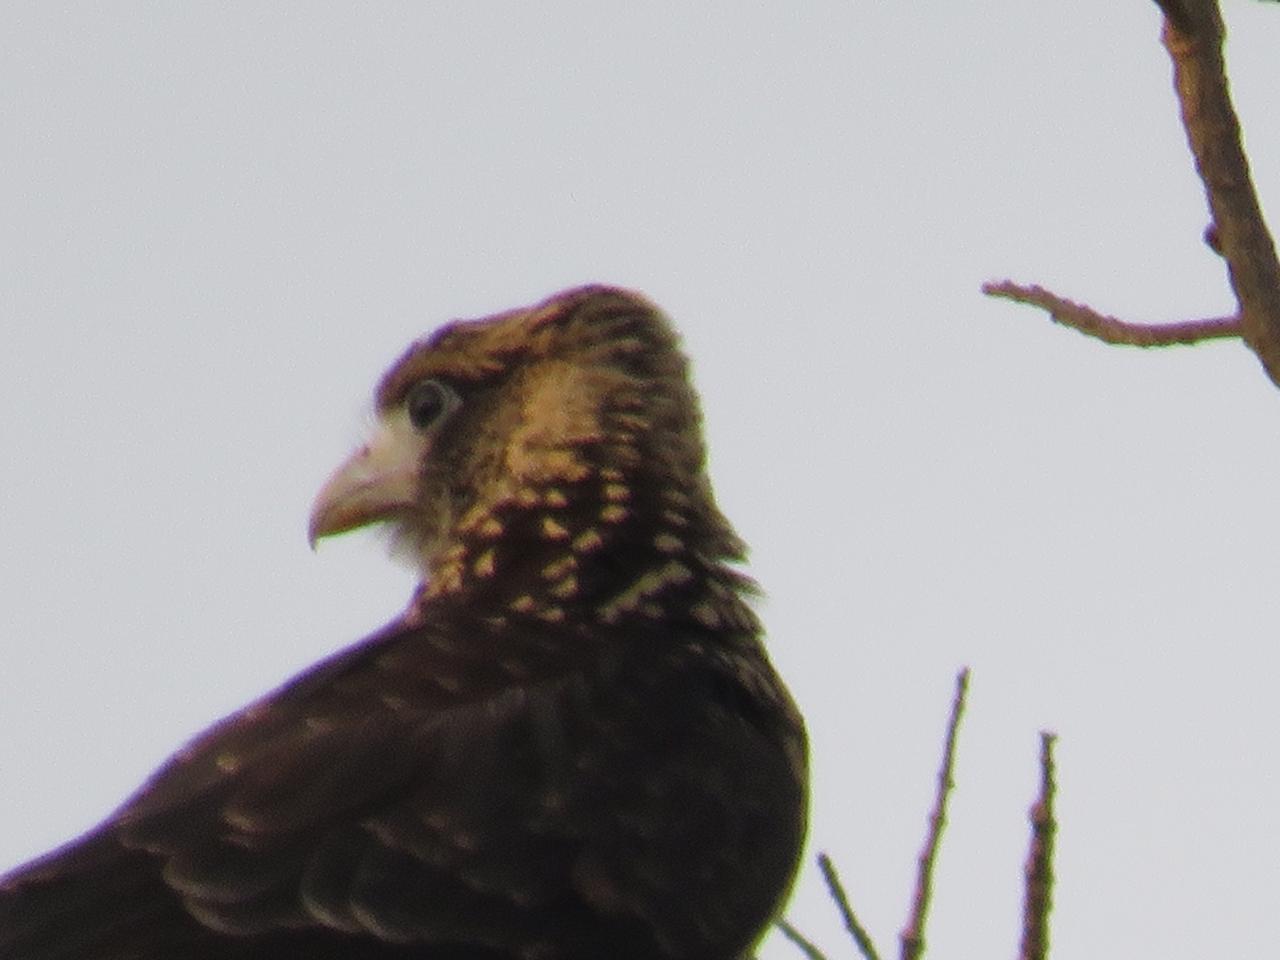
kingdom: Animalia
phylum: Chordata
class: Aves
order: Falconiformes
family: Falconidae
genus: Daptrius
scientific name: Daptrius
